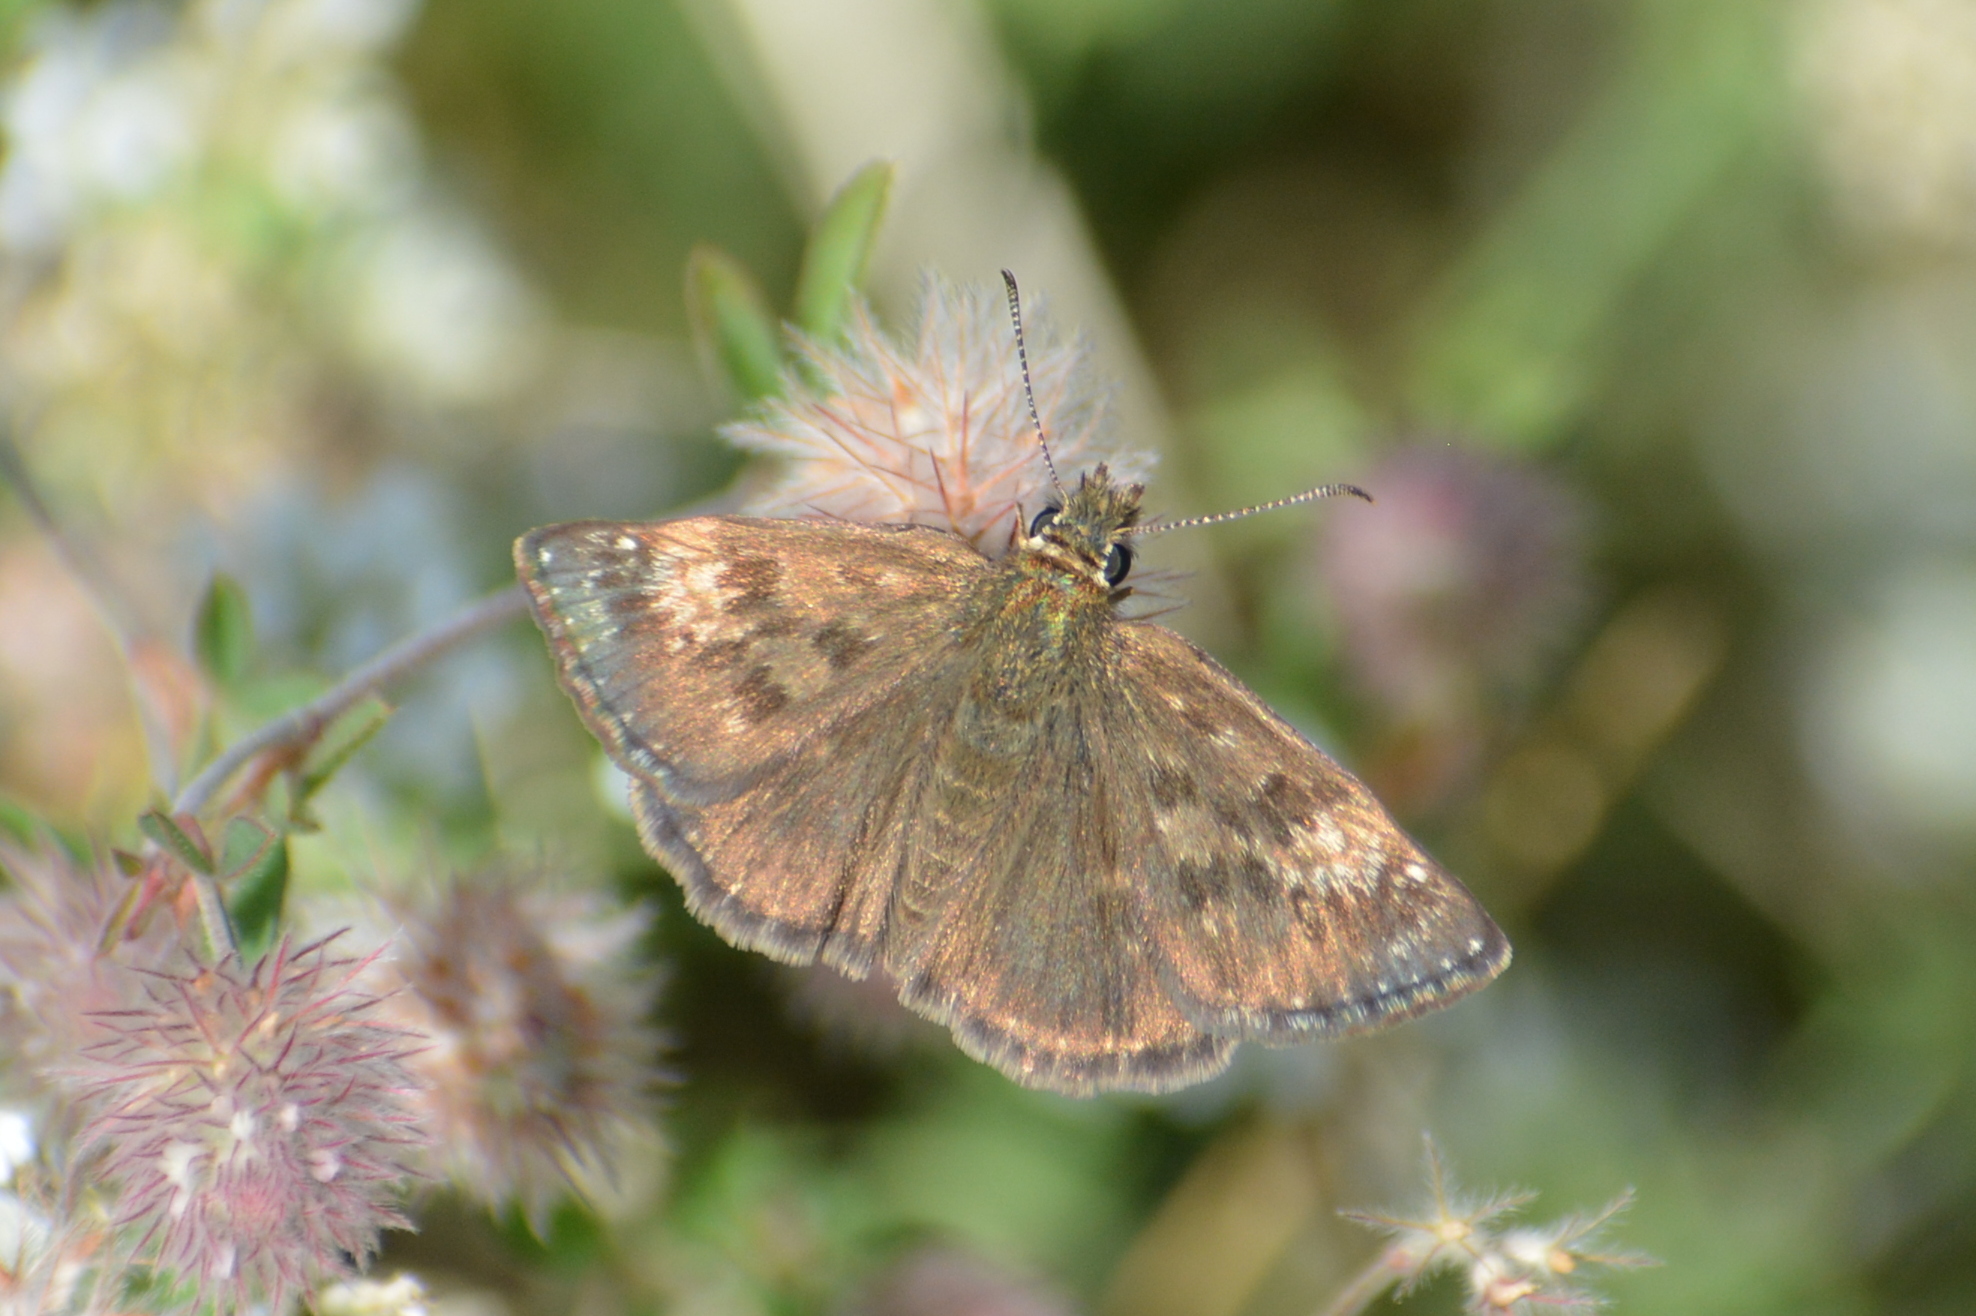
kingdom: Animalia
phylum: Arthropoda
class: Insecta
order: Lepidoptera
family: Hesperiidae
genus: Erynnis
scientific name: Erynnis tages
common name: Dingy skipper
